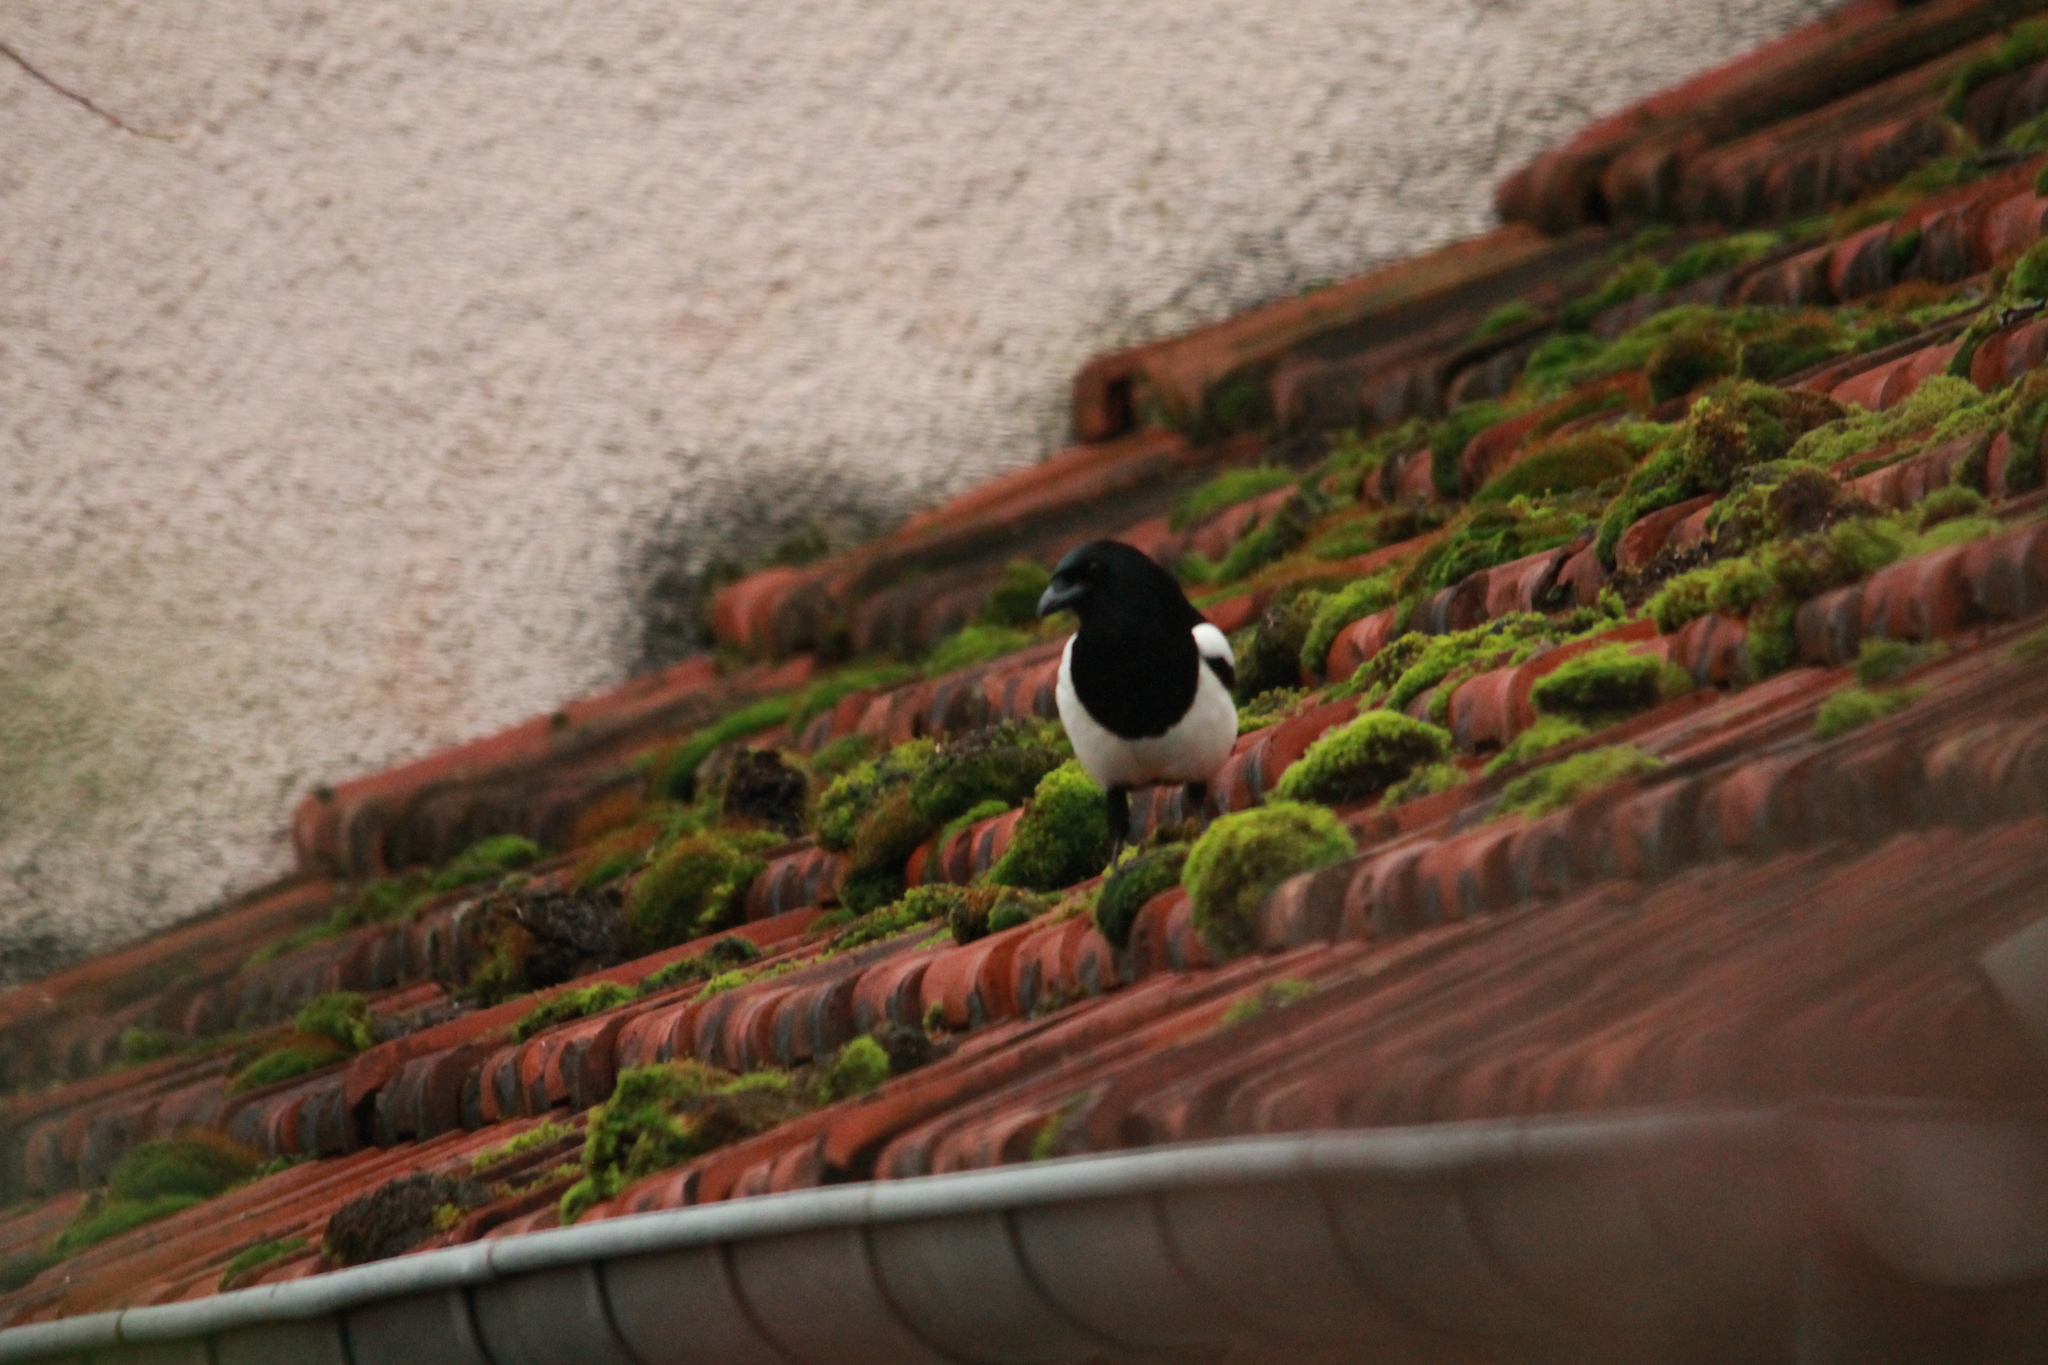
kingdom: Animalia
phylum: Chordata
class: Aves
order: Passeriformes
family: Corvidae
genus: Pica
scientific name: Pica pica
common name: Eurasian magpie
